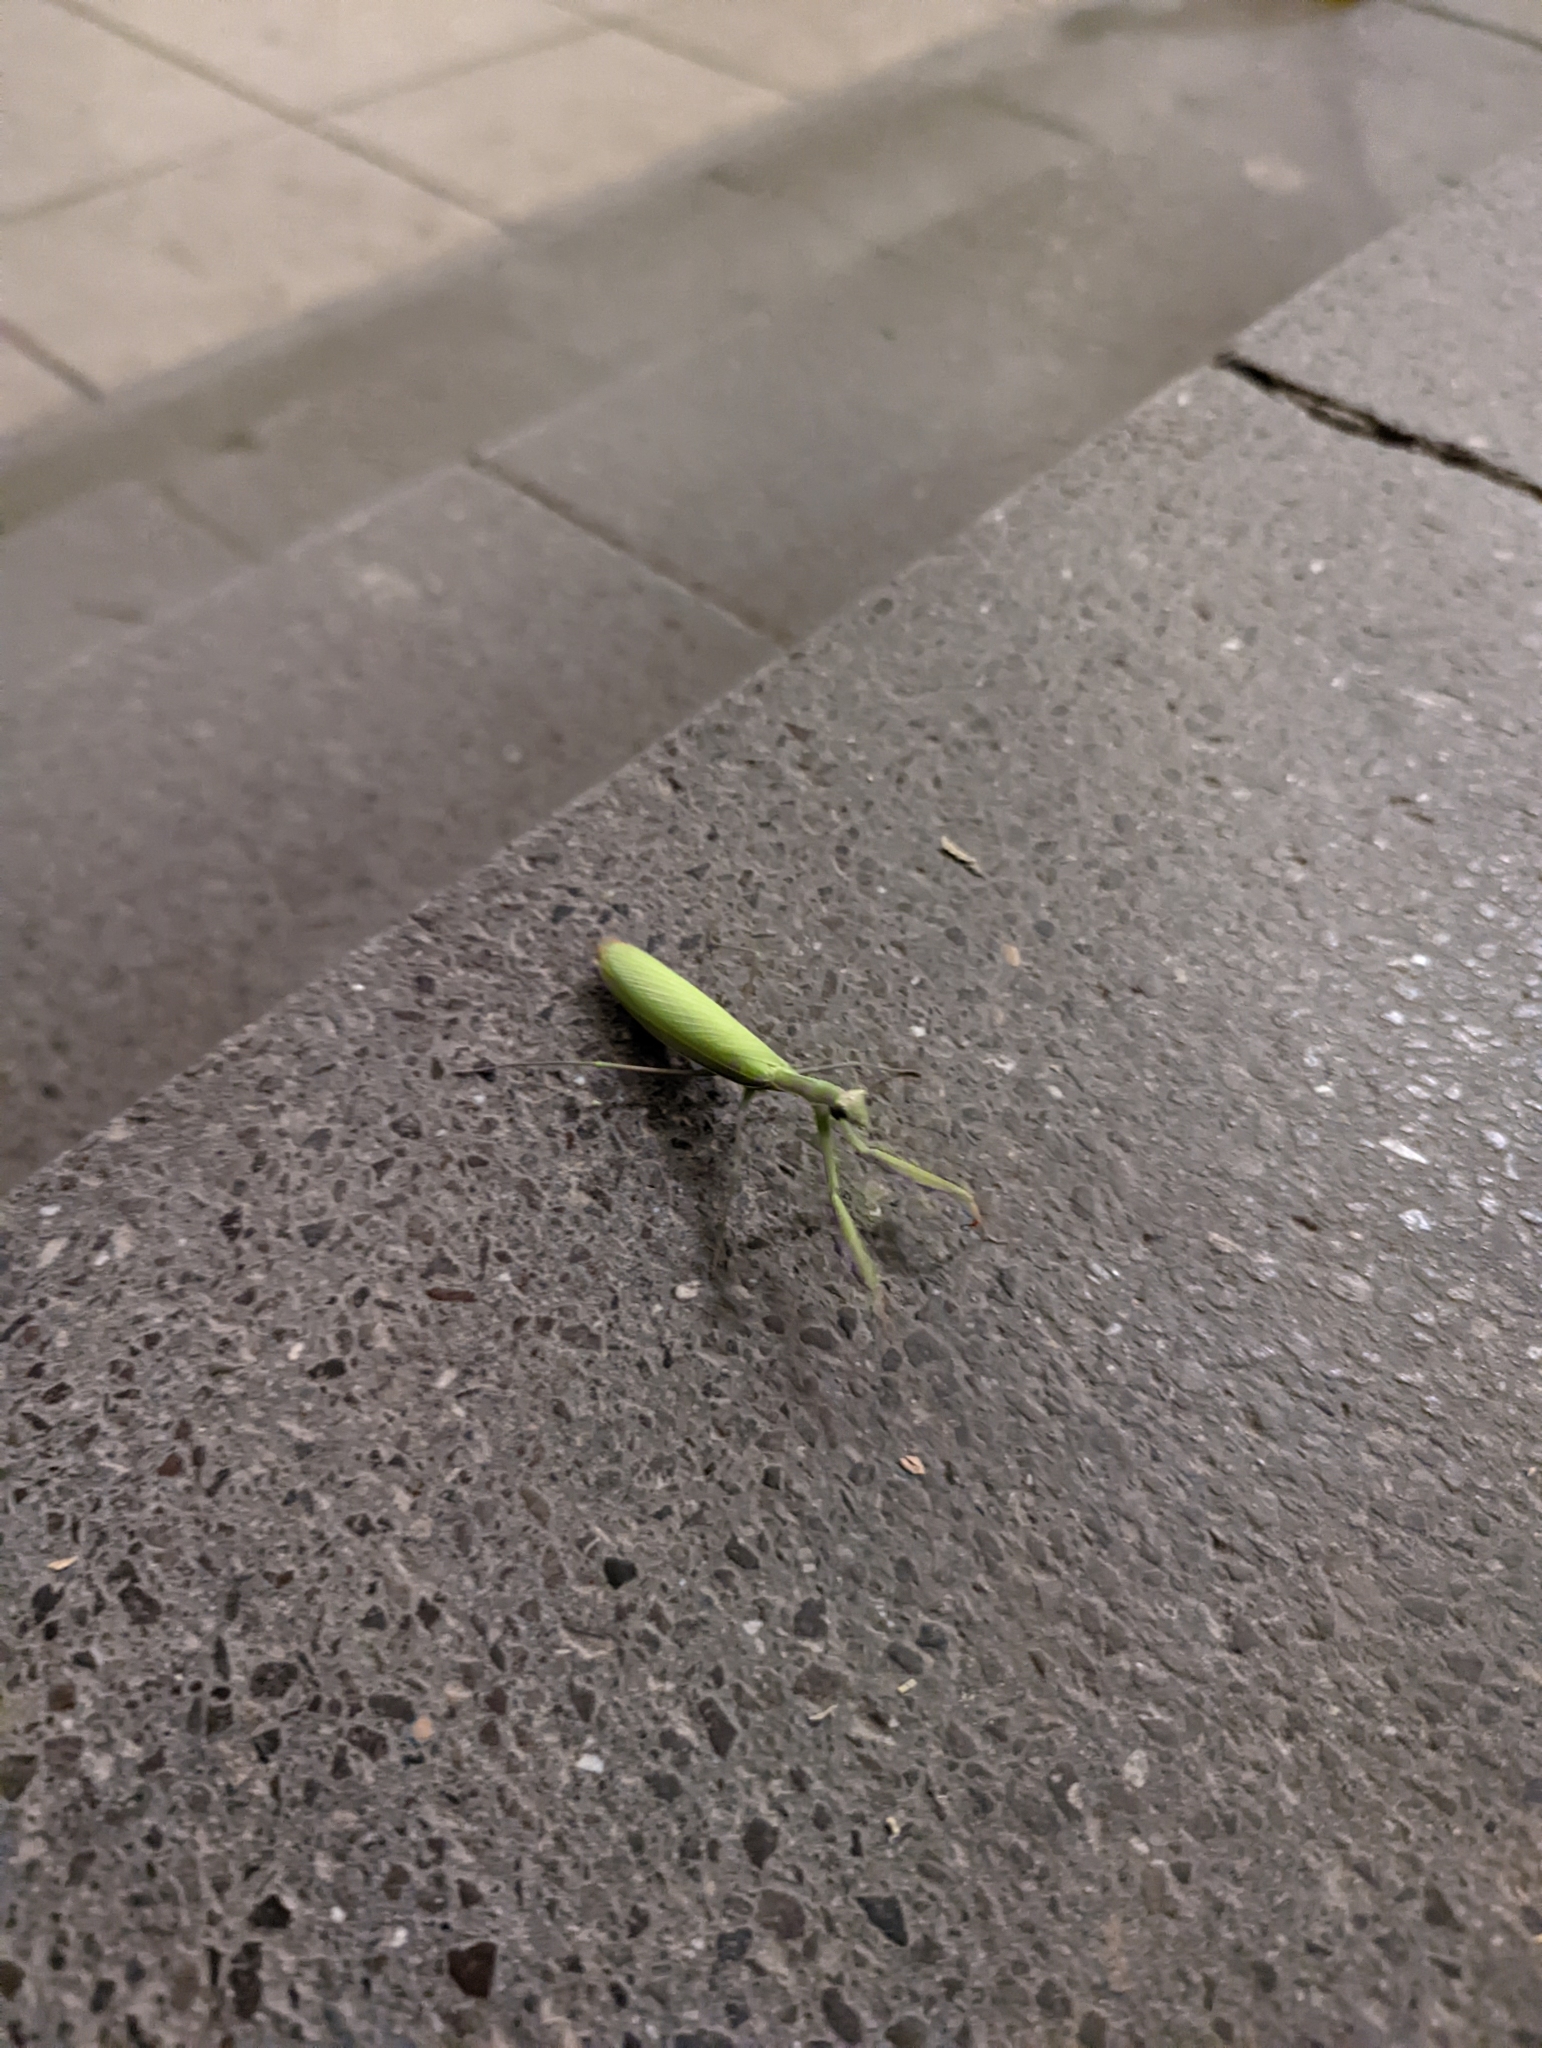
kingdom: Animalia
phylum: Arthropoda
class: Insecta
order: Mantodea
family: Mantidae
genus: Mantis
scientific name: Mantis religiosa
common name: Praying mantis
